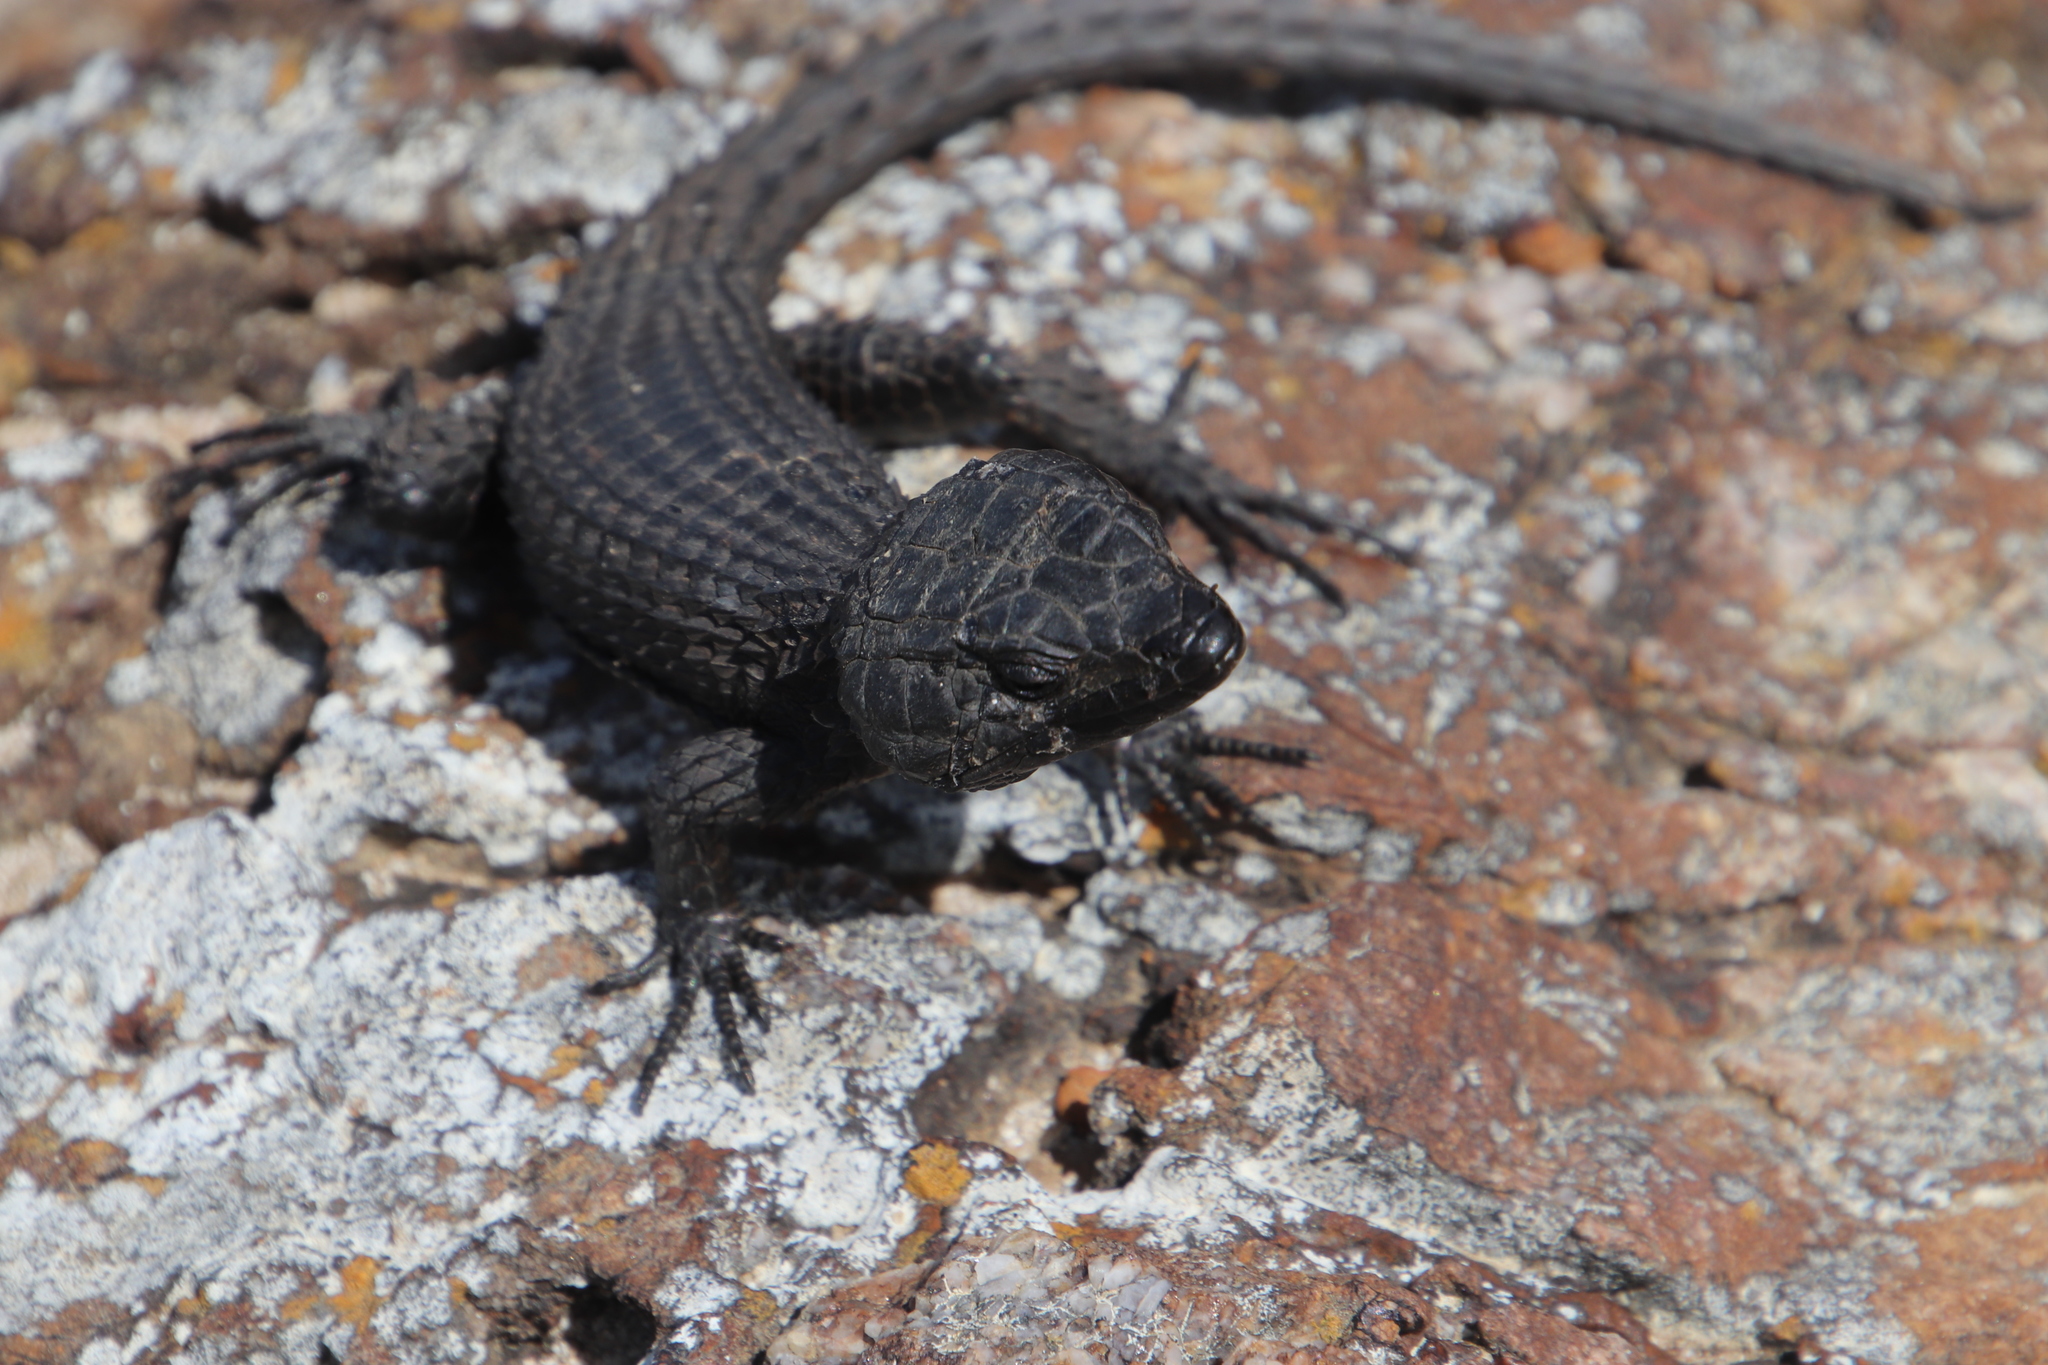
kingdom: Animalia
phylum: Chordata
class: Squamata
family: Cordylidae
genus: Cordylus
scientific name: Cordylus niger
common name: Black girdled lizard
